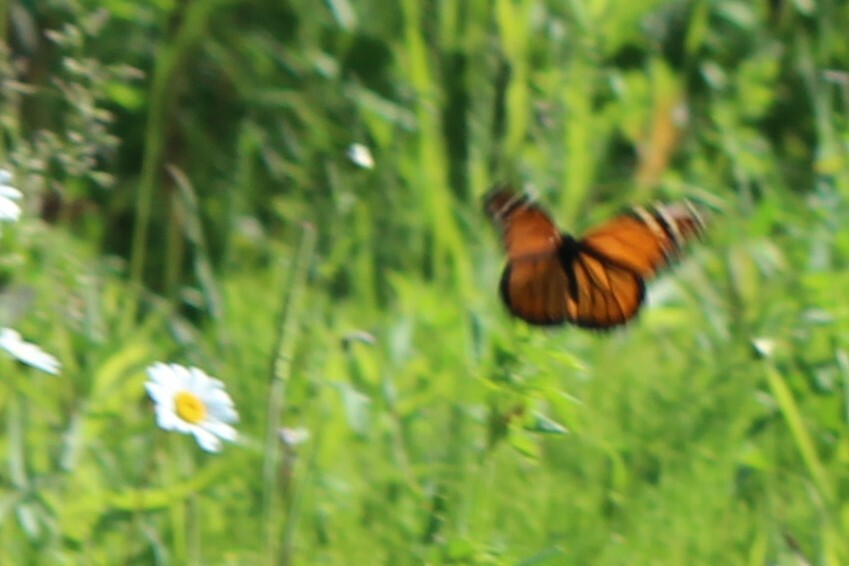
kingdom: Animalia
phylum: Arthropoda
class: Insecta
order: Lepidoptera
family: Nymphalidae
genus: Danaus
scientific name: Danaus plexippus
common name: Monarch
